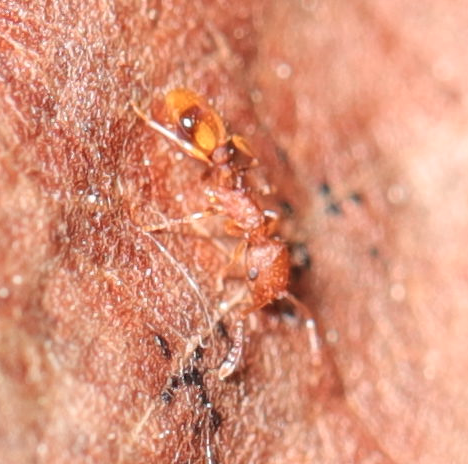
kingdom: Animalia
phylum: Arthropoda
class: Insecta
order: Hymenoptera
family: Formicidae
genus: Temnothorax
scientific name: Temnothorax
